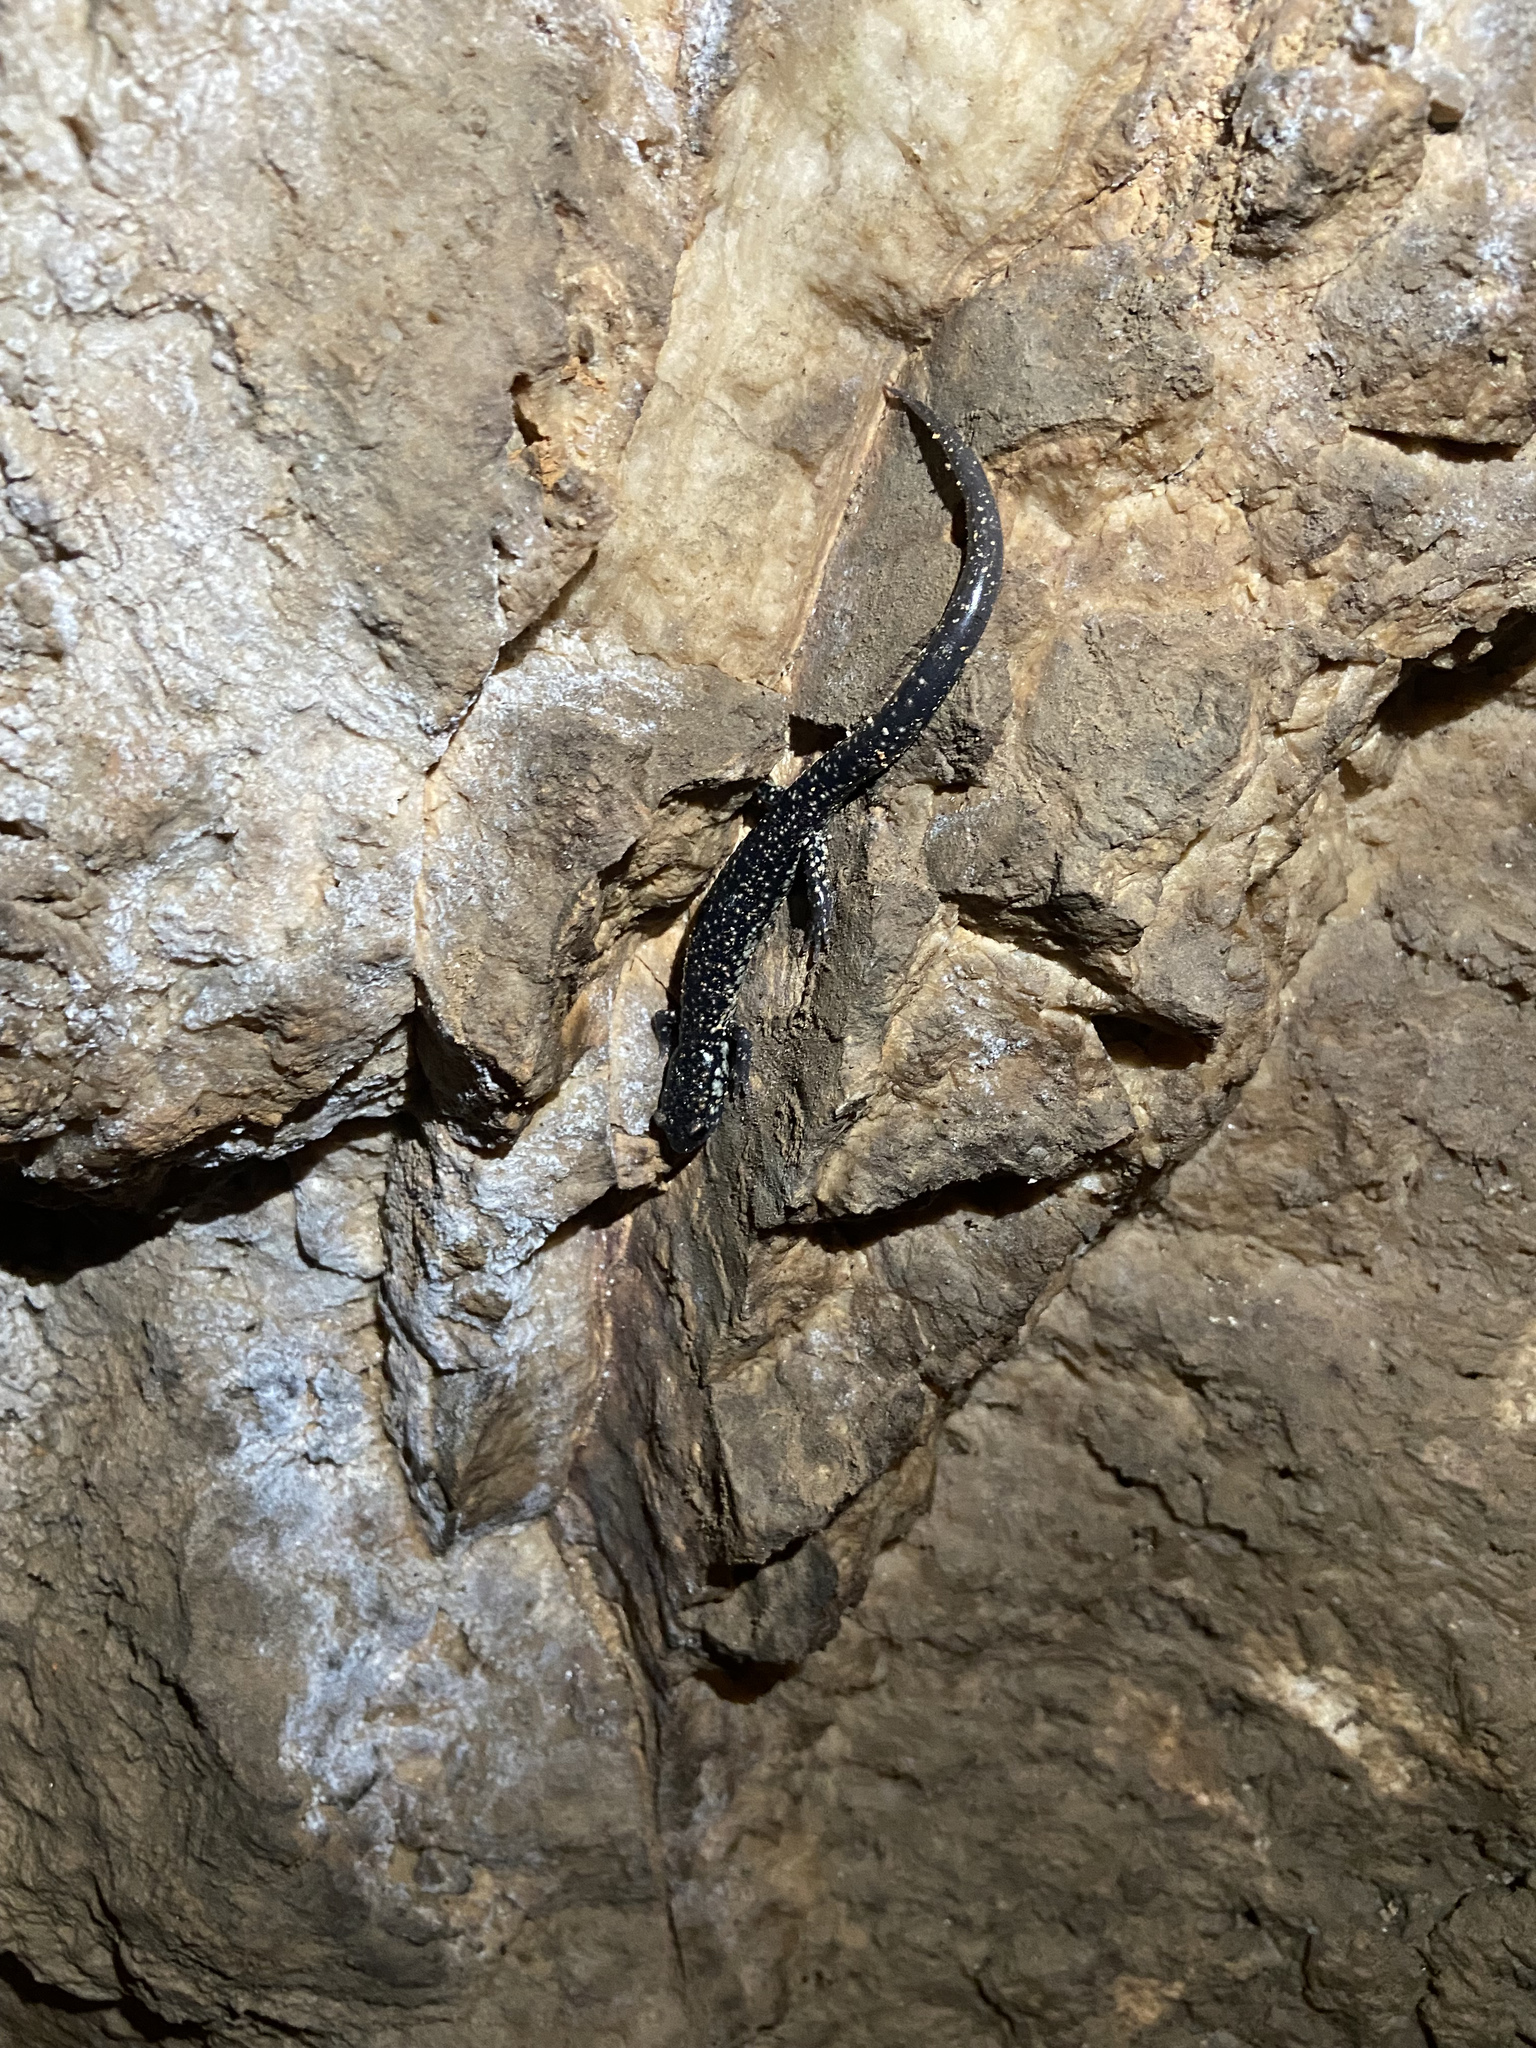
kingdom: Animalia
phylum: Chordata
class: Amphibia
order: Caudata
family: Plethodontidae
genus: Plethodon
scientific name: Plethodon glutinosus
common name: Northern slimy salamander
